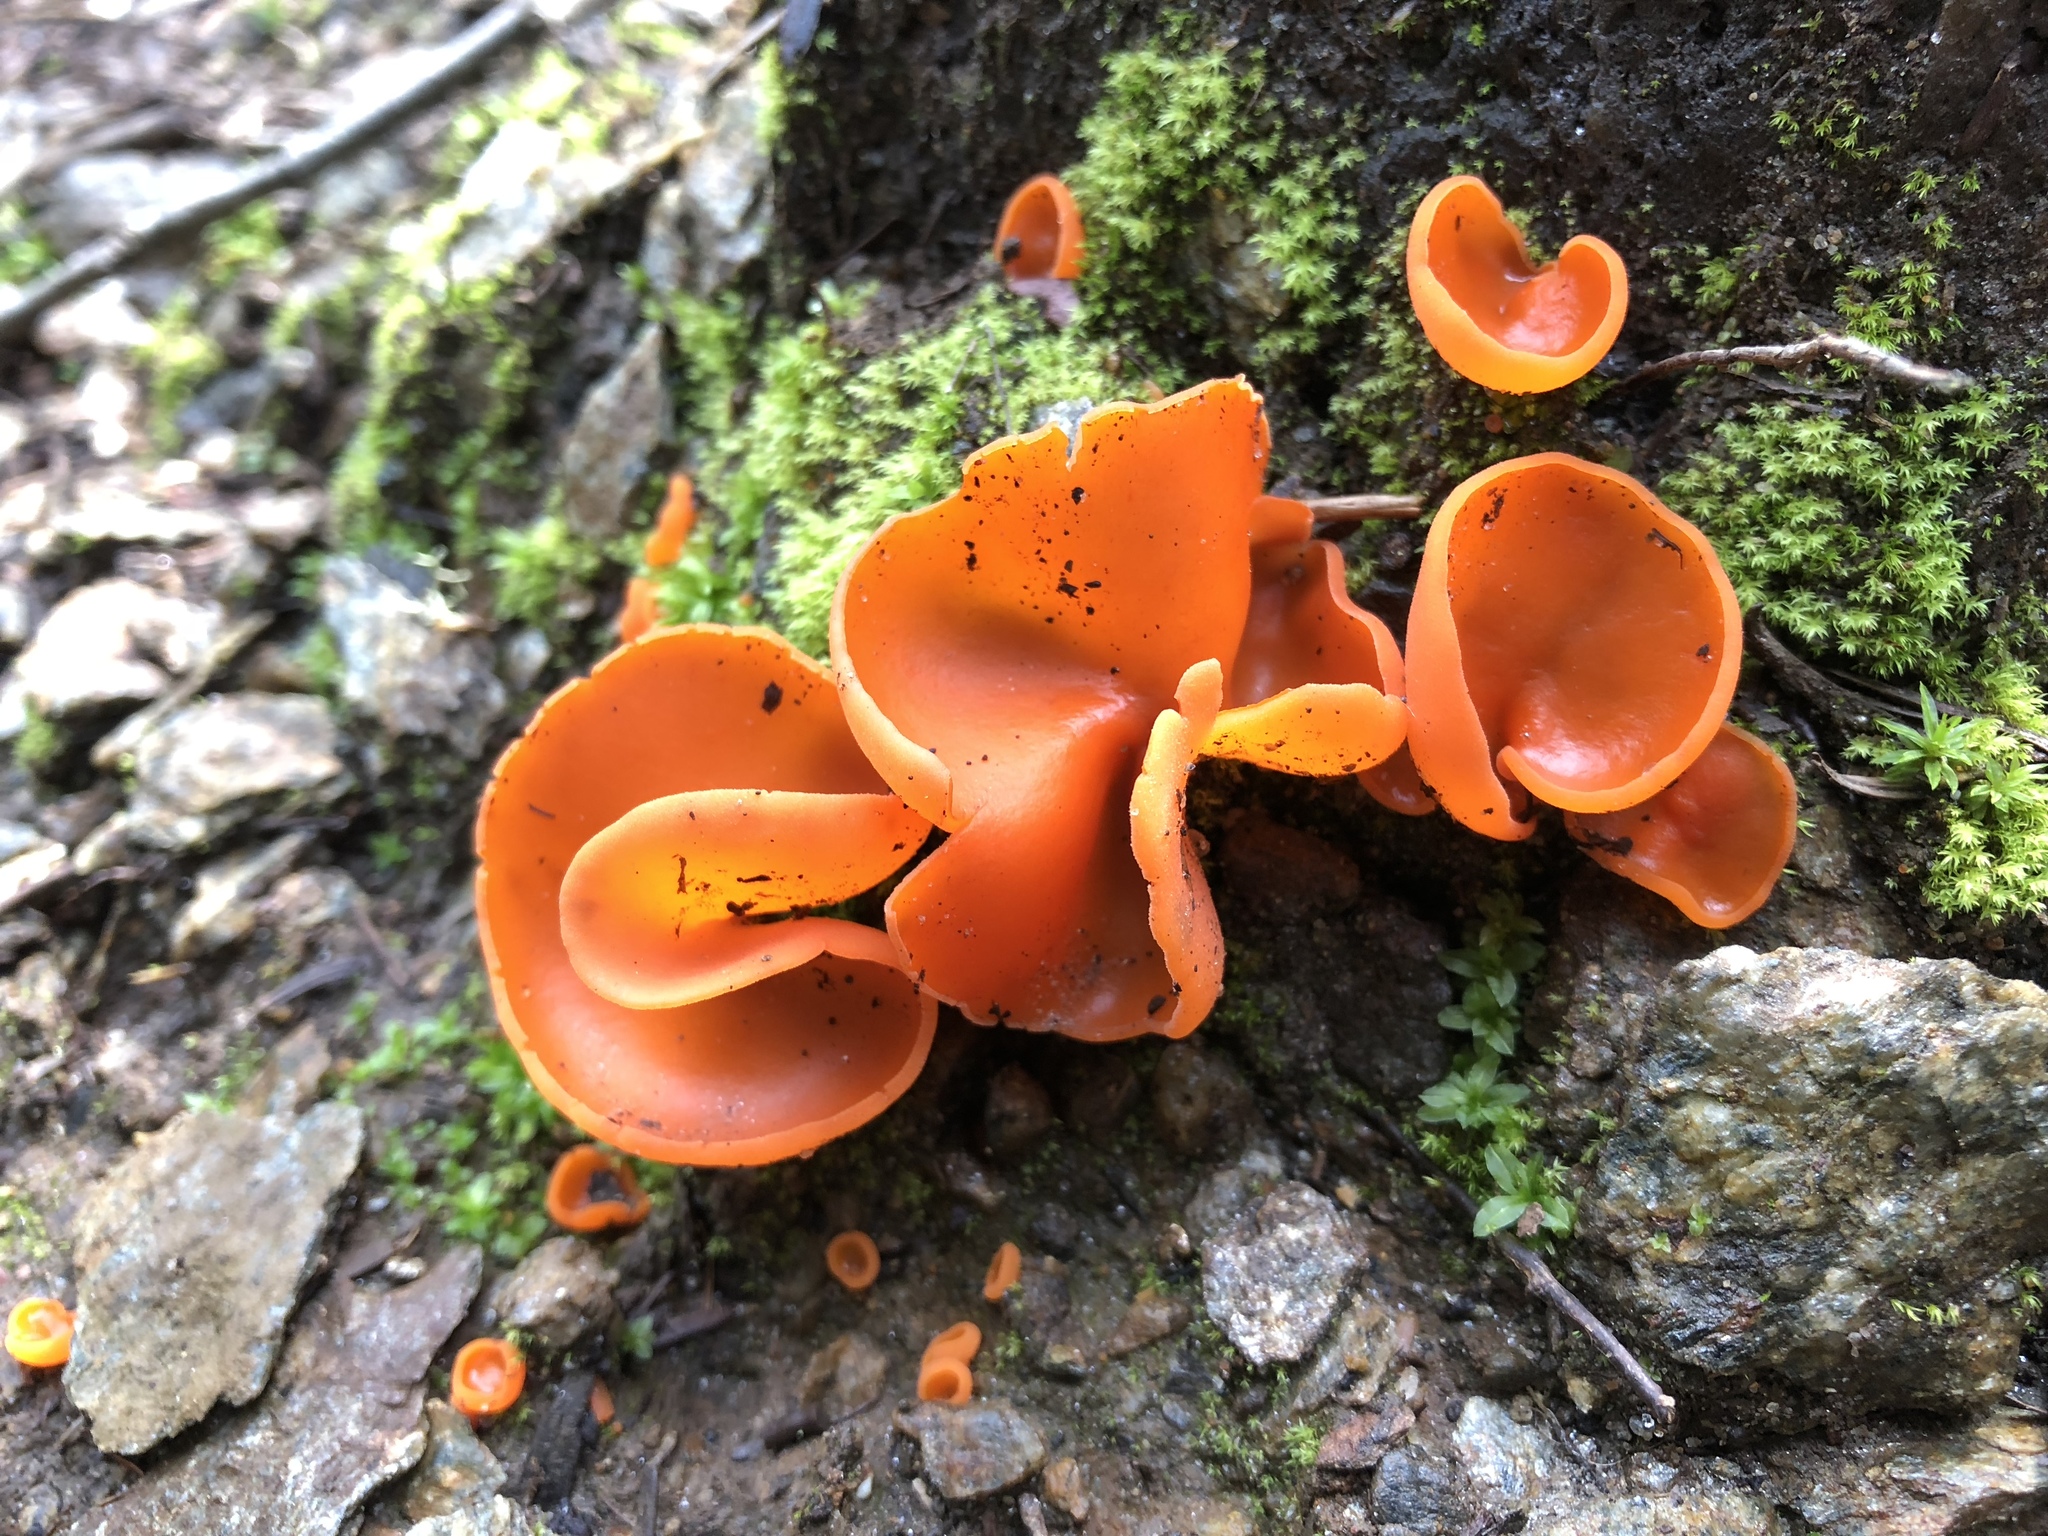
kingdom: Fungi
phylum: Ascomycota
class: Pezizomycetes
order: Pezizales
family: Pyronemataceae
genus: Aleuria
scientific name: Aleuria aurantia
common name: Orange peel fungus
